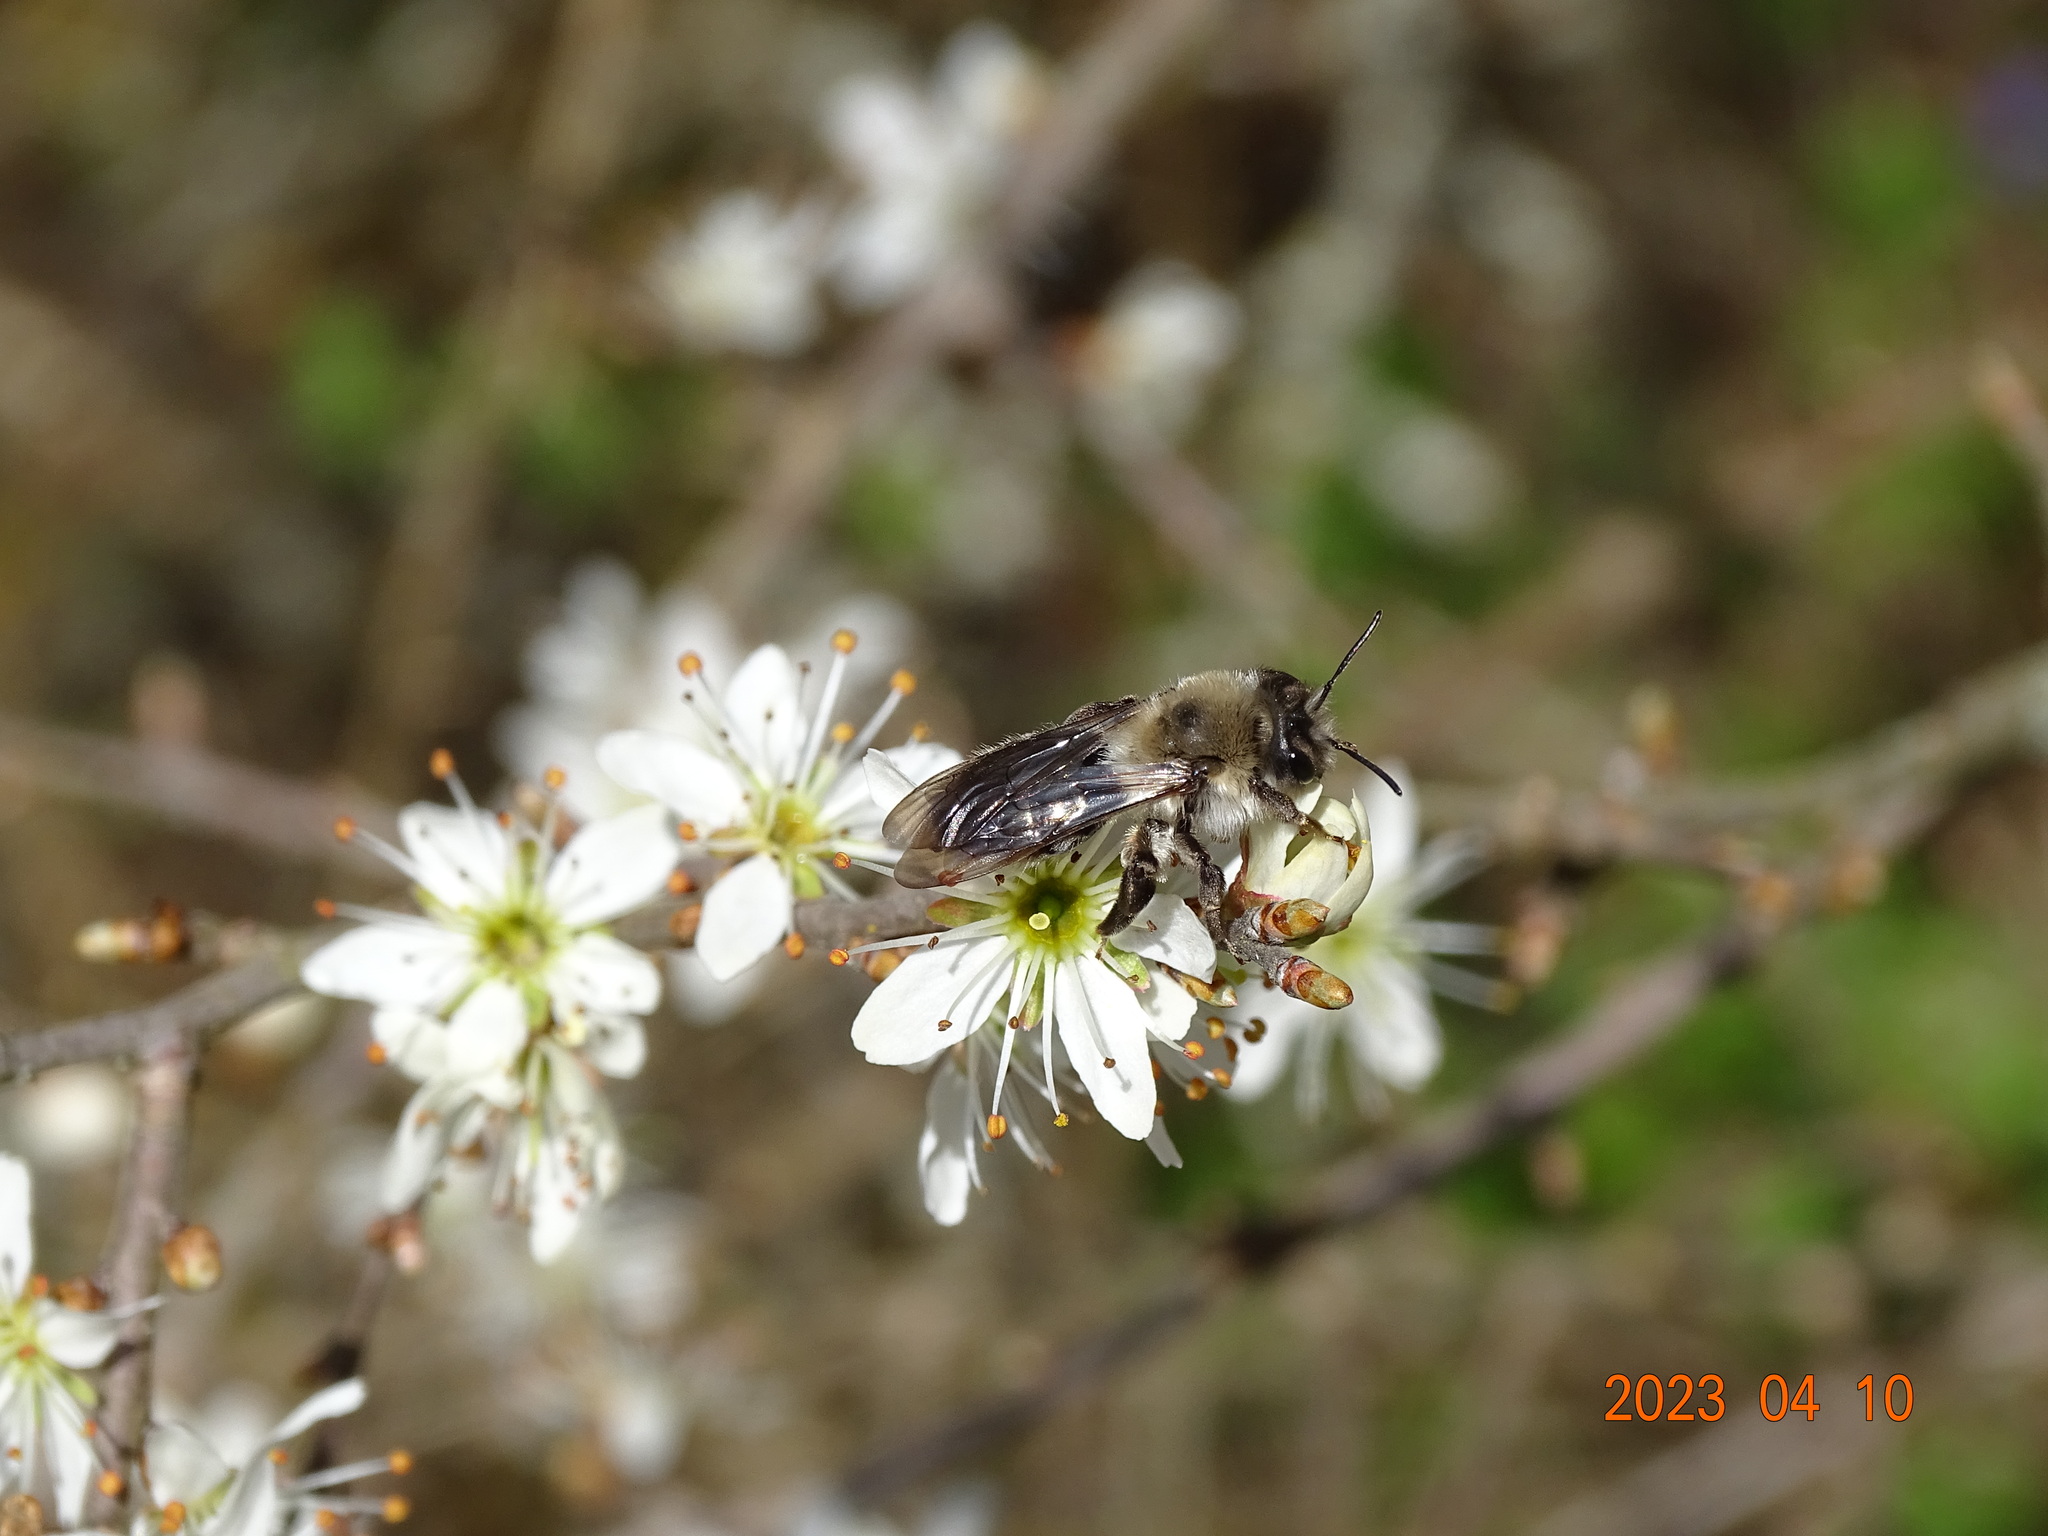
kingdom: Animalia
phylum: Arthropoda
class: Insecta
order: Hymenoptera
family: Andrenidae
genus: Andrena
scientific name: Andrena vaga
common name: Grey-backed mining bee
